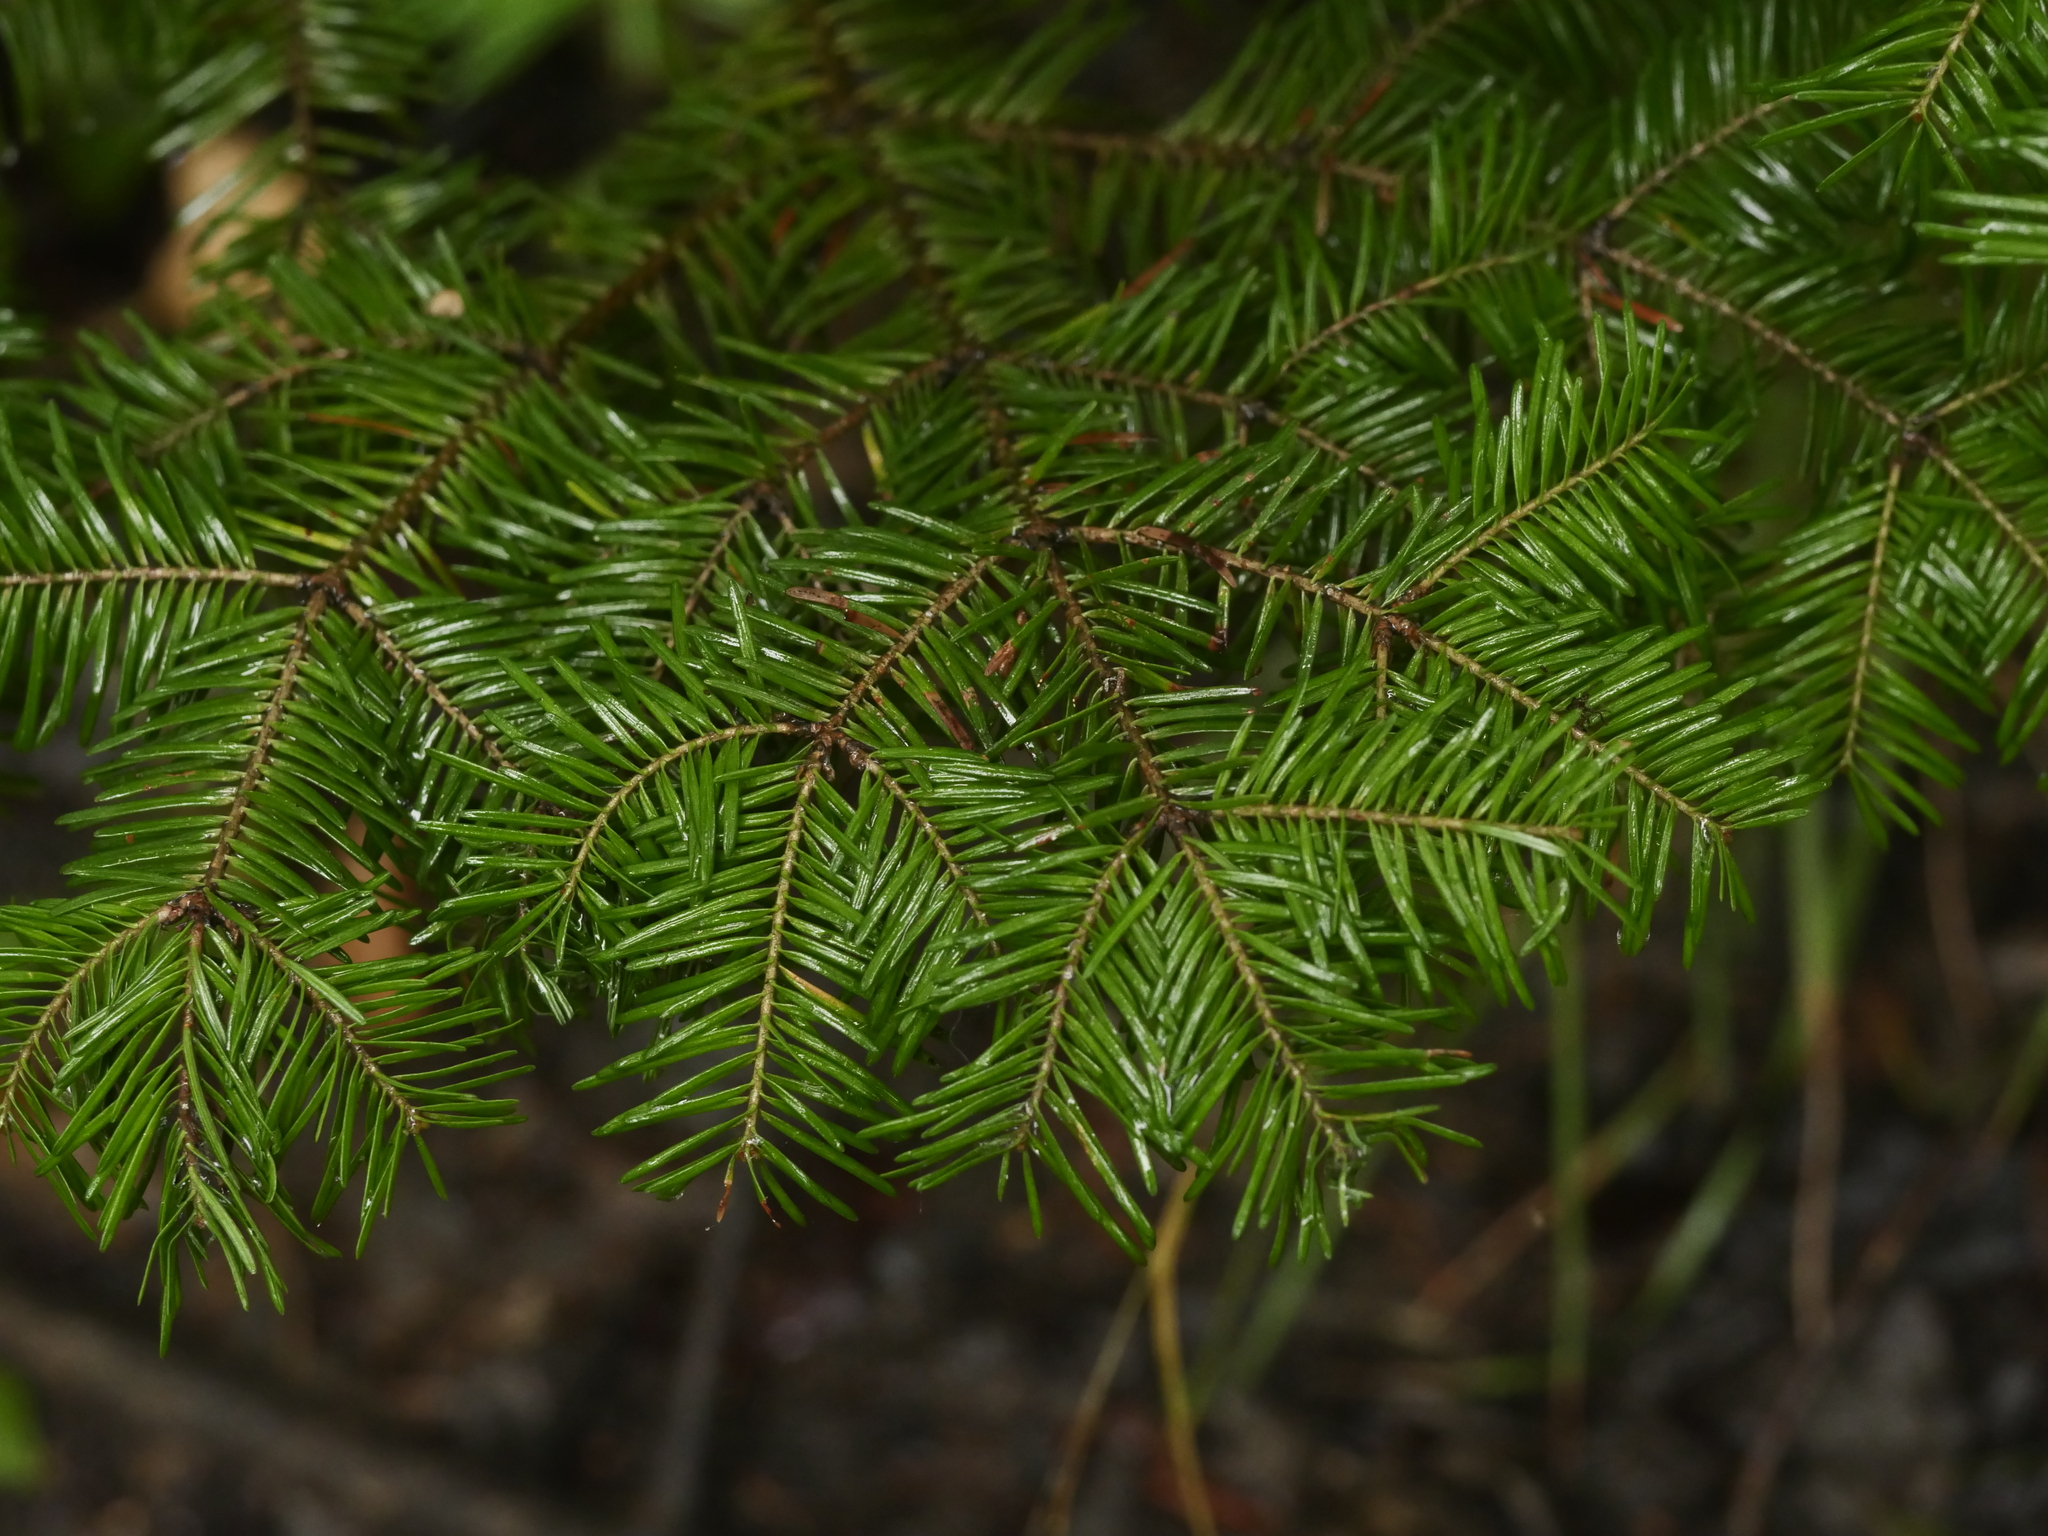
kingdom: Plantae
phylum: Tracheophyta
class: Pinopsida
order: Pinales
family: Pinaceae
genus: Abies
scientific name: Abies balsamea
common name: Balsam fir
